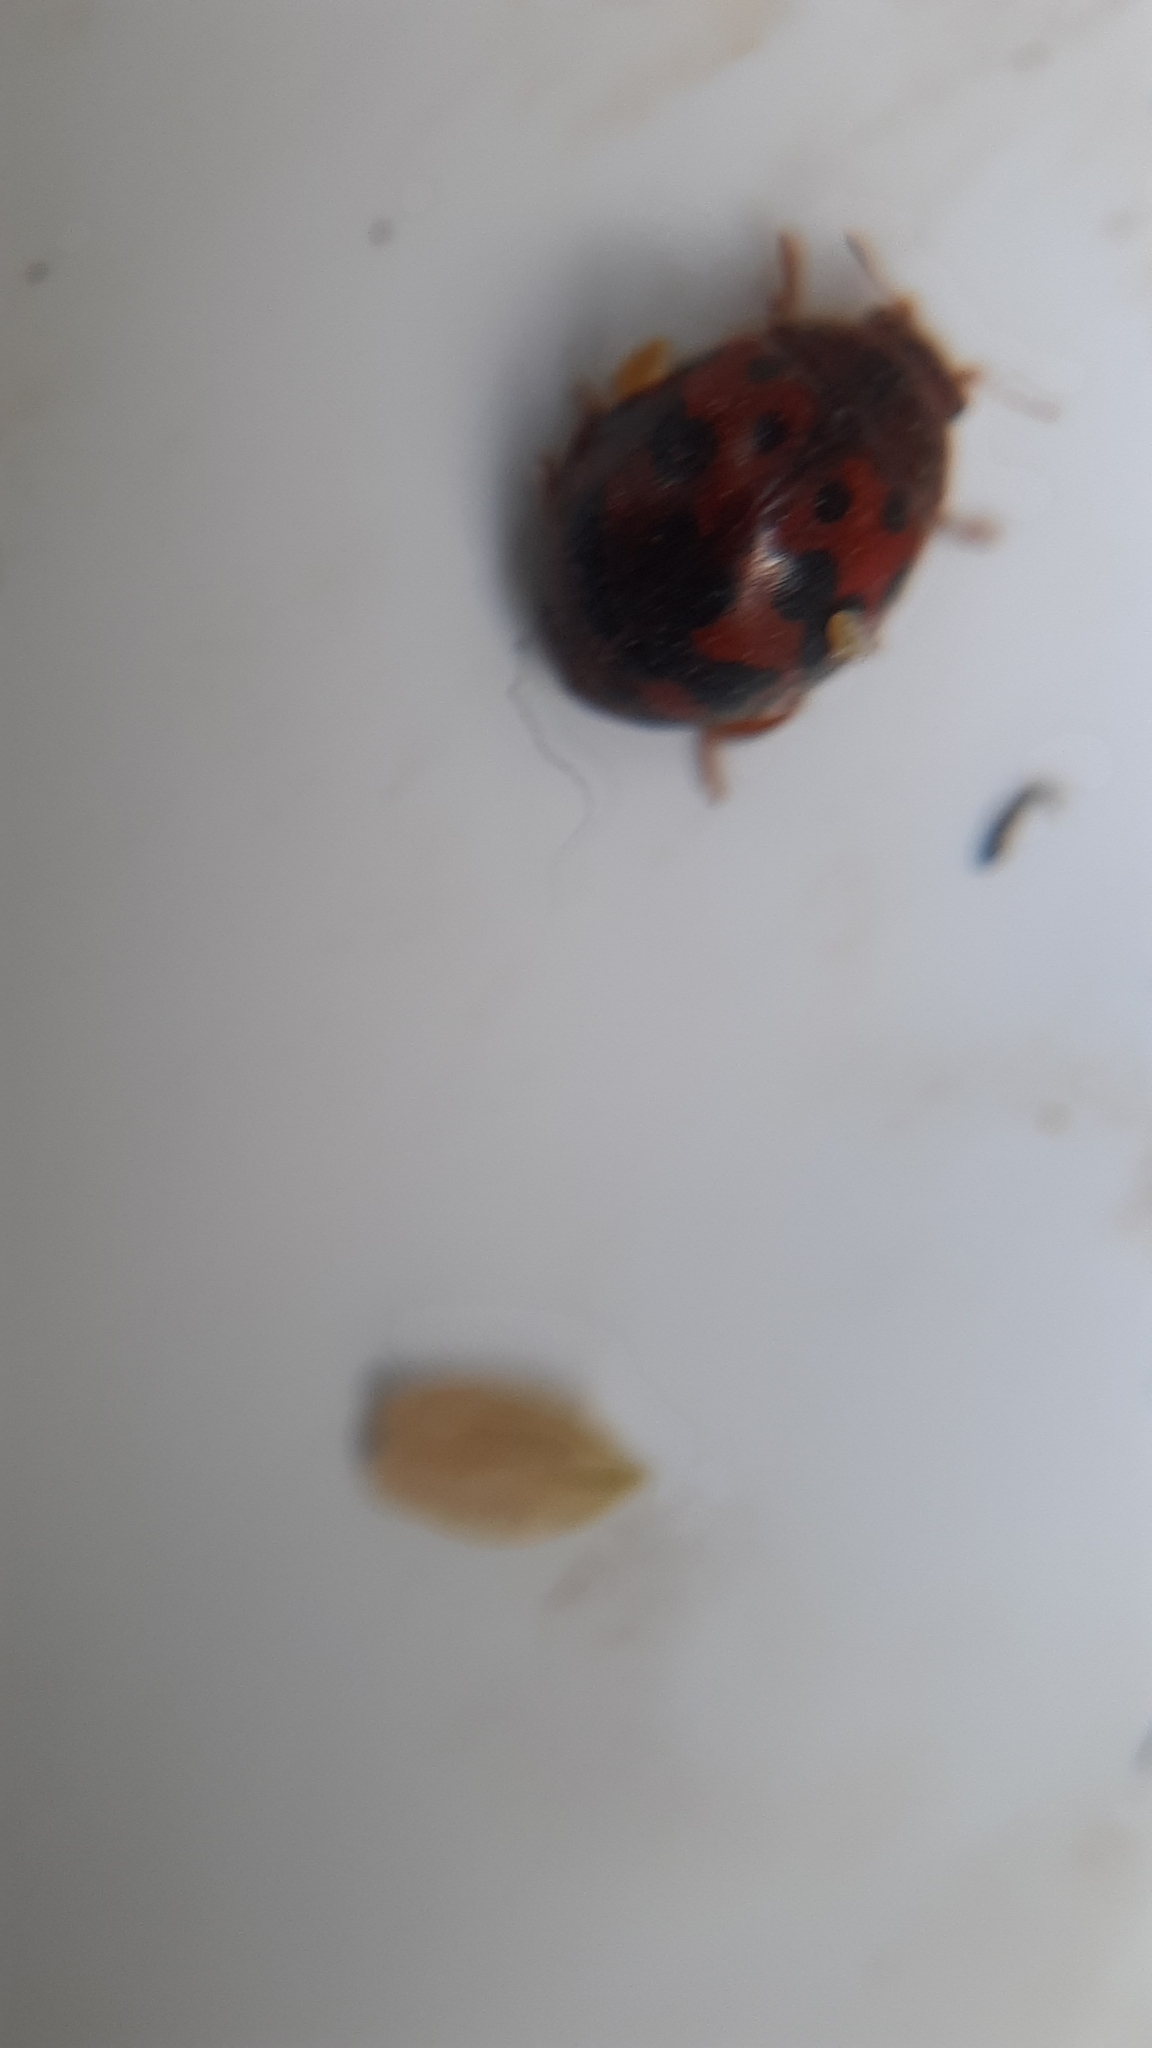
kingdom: Animalia
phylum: Arthropoda
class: Insecta
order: Coleoptera
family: Coccinellidae
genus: Subcoccinella
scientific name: Subcoccinella vigintiquatuorpunctata
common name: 24-spot ladybird
